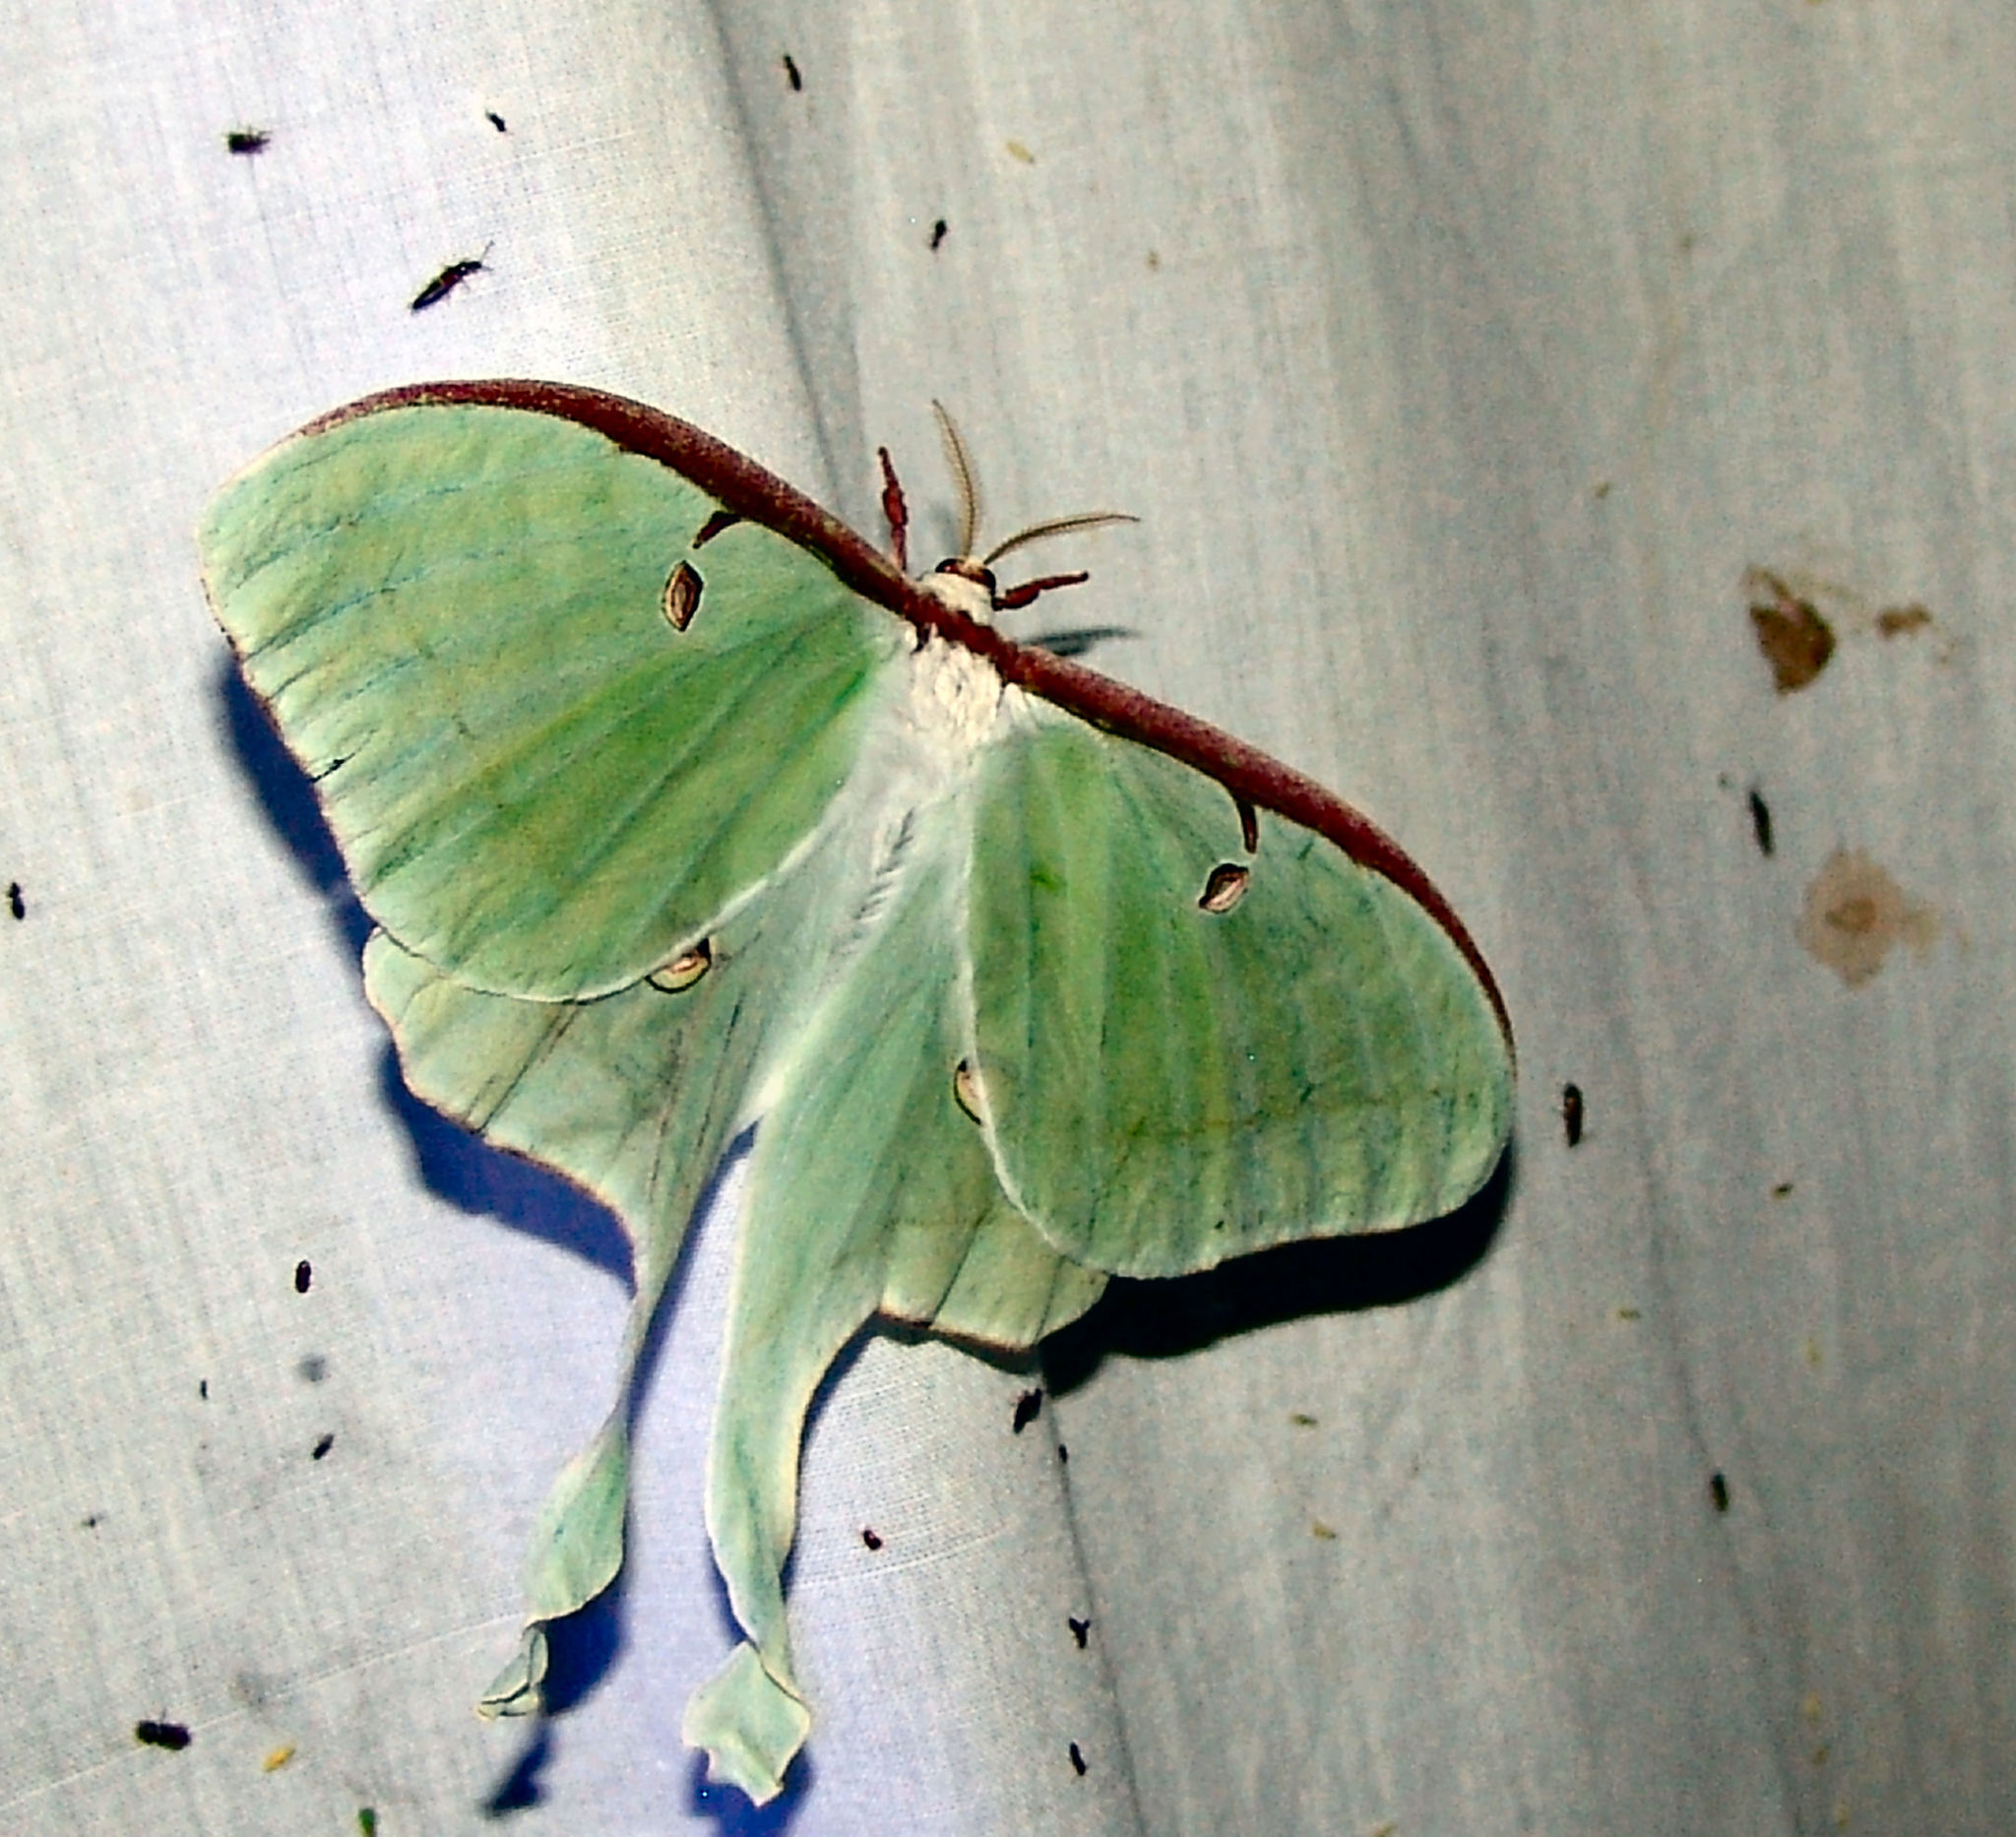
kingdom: Animalia
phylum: Arthropoda
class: Insecta
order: Lepidoptera
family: Saturniidae
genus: Actias
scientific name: Actias luna
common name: Luna moth
